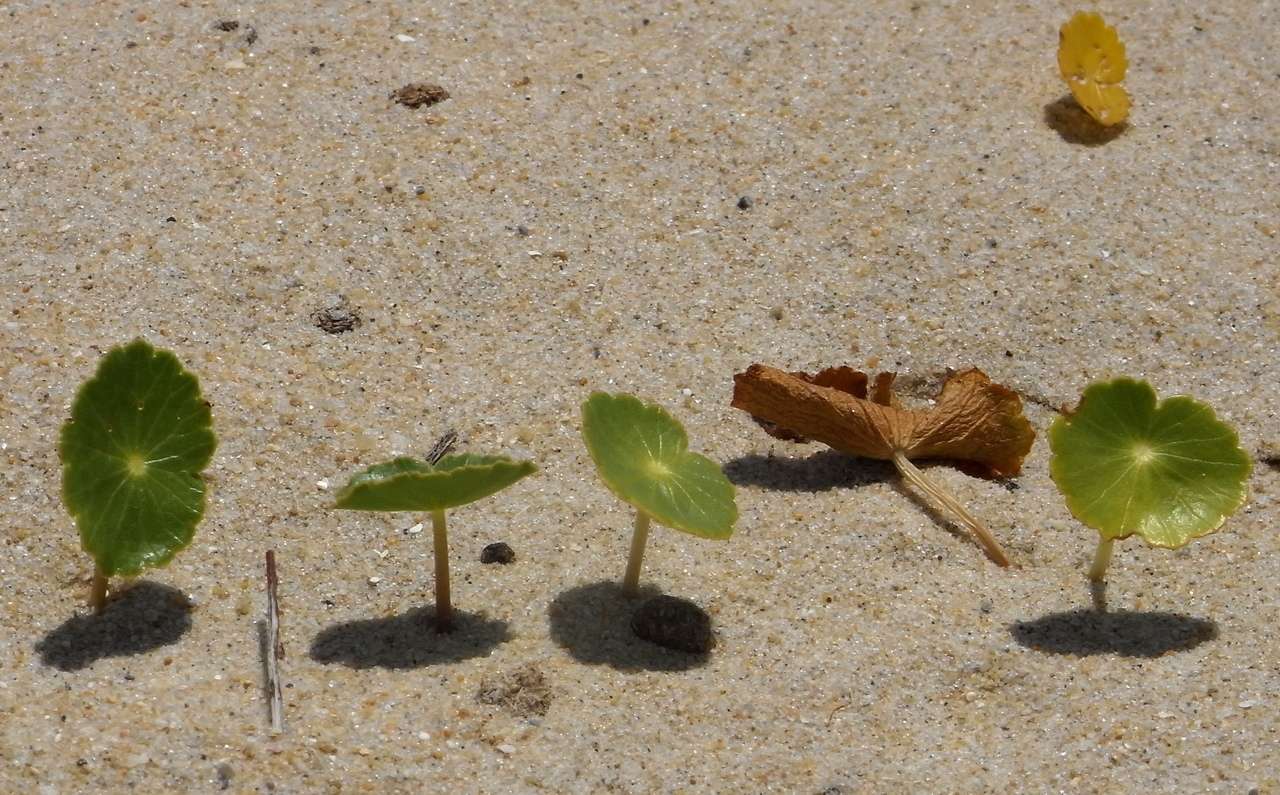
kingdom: Plantae
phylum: Tracheophyta
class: Magnoliopsida
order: Apiales
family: Araliaceae
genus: Hydrocotyle
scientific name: Hydrocotyle bonariensis
